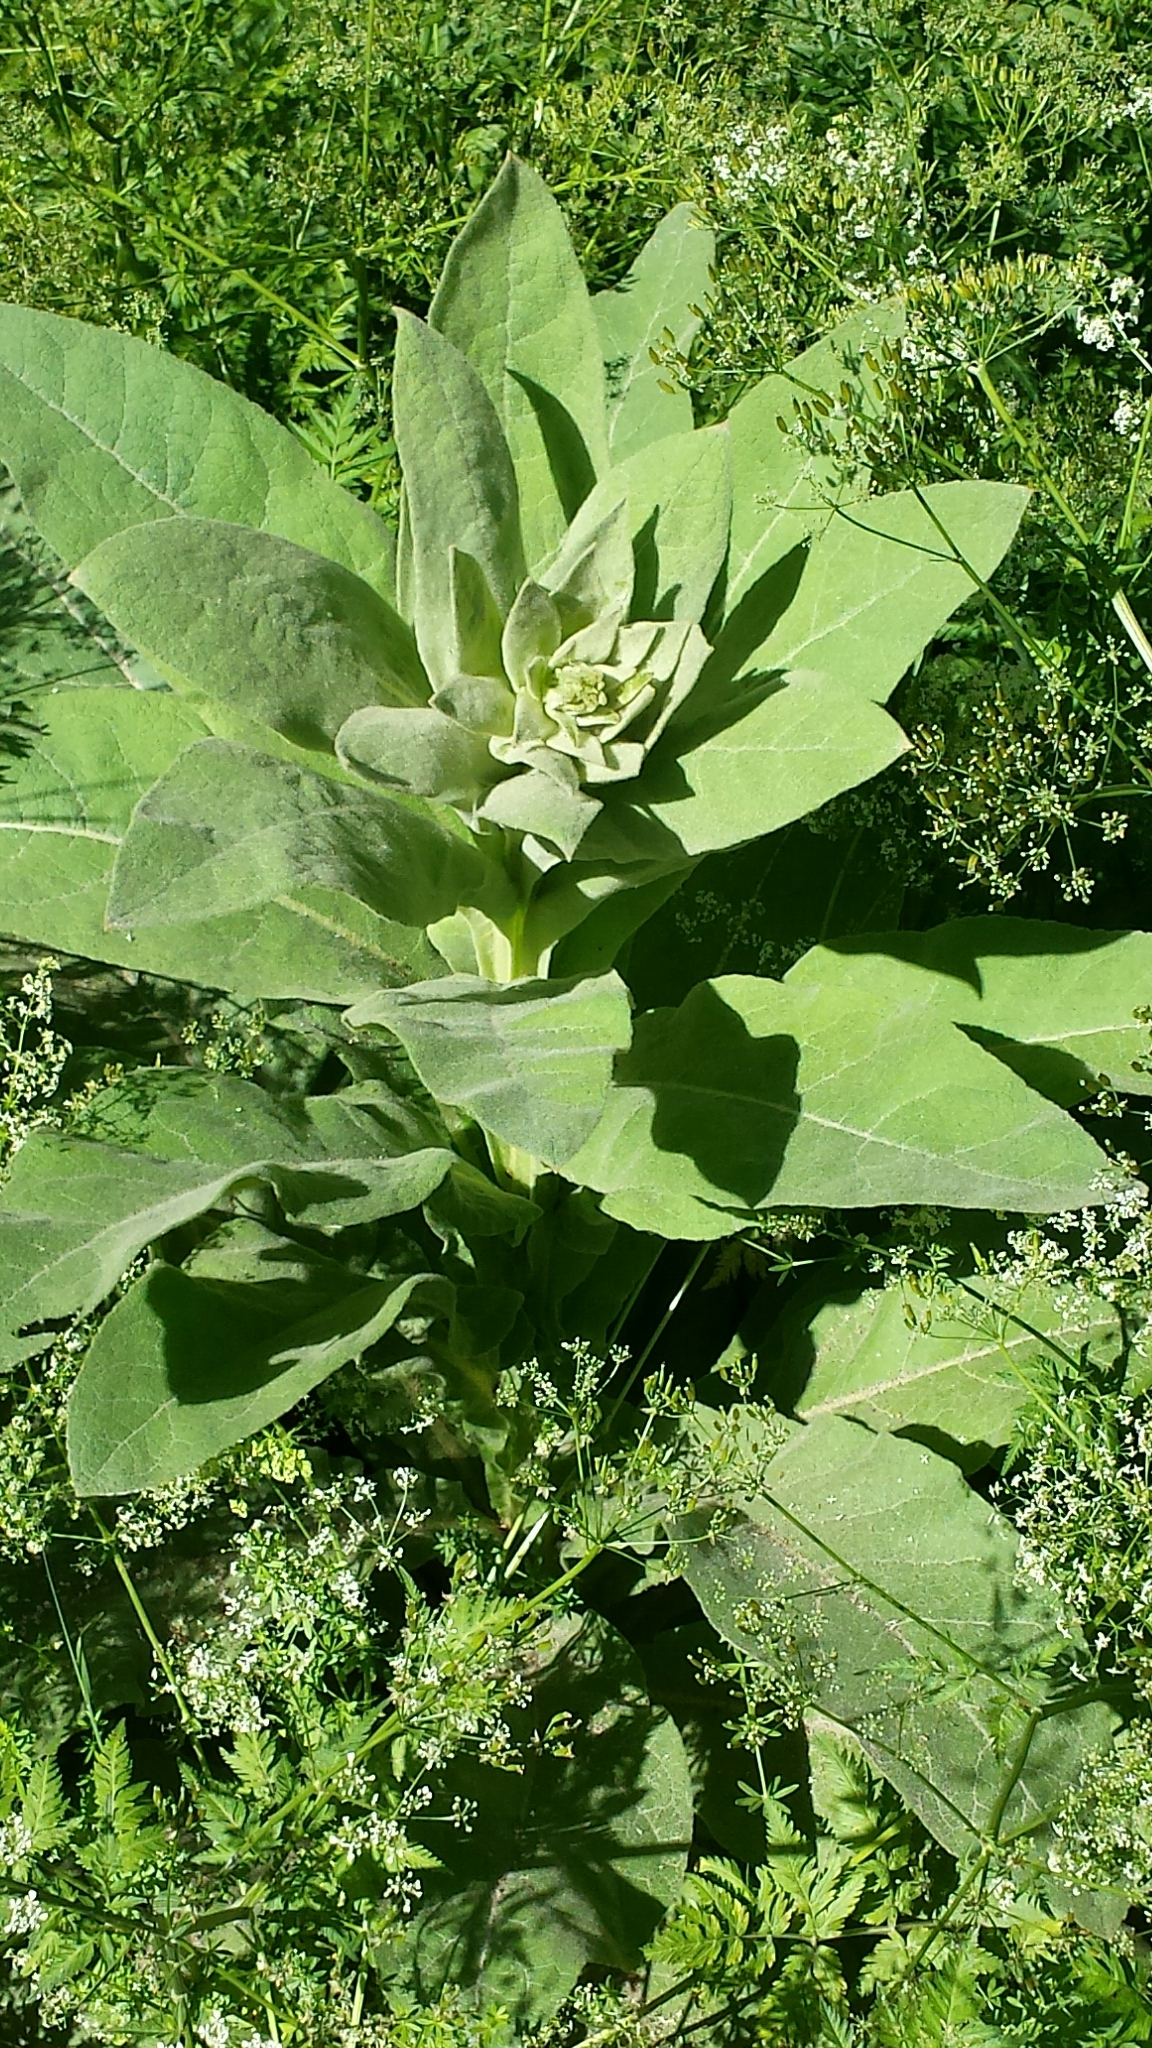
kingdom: Plantae
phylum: Tracheophyta
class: Magnoliopsida
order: Lamiales
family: Scrophulariaceae
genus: Verbascum
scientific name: Verbascum thapsus
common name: Common mullein
